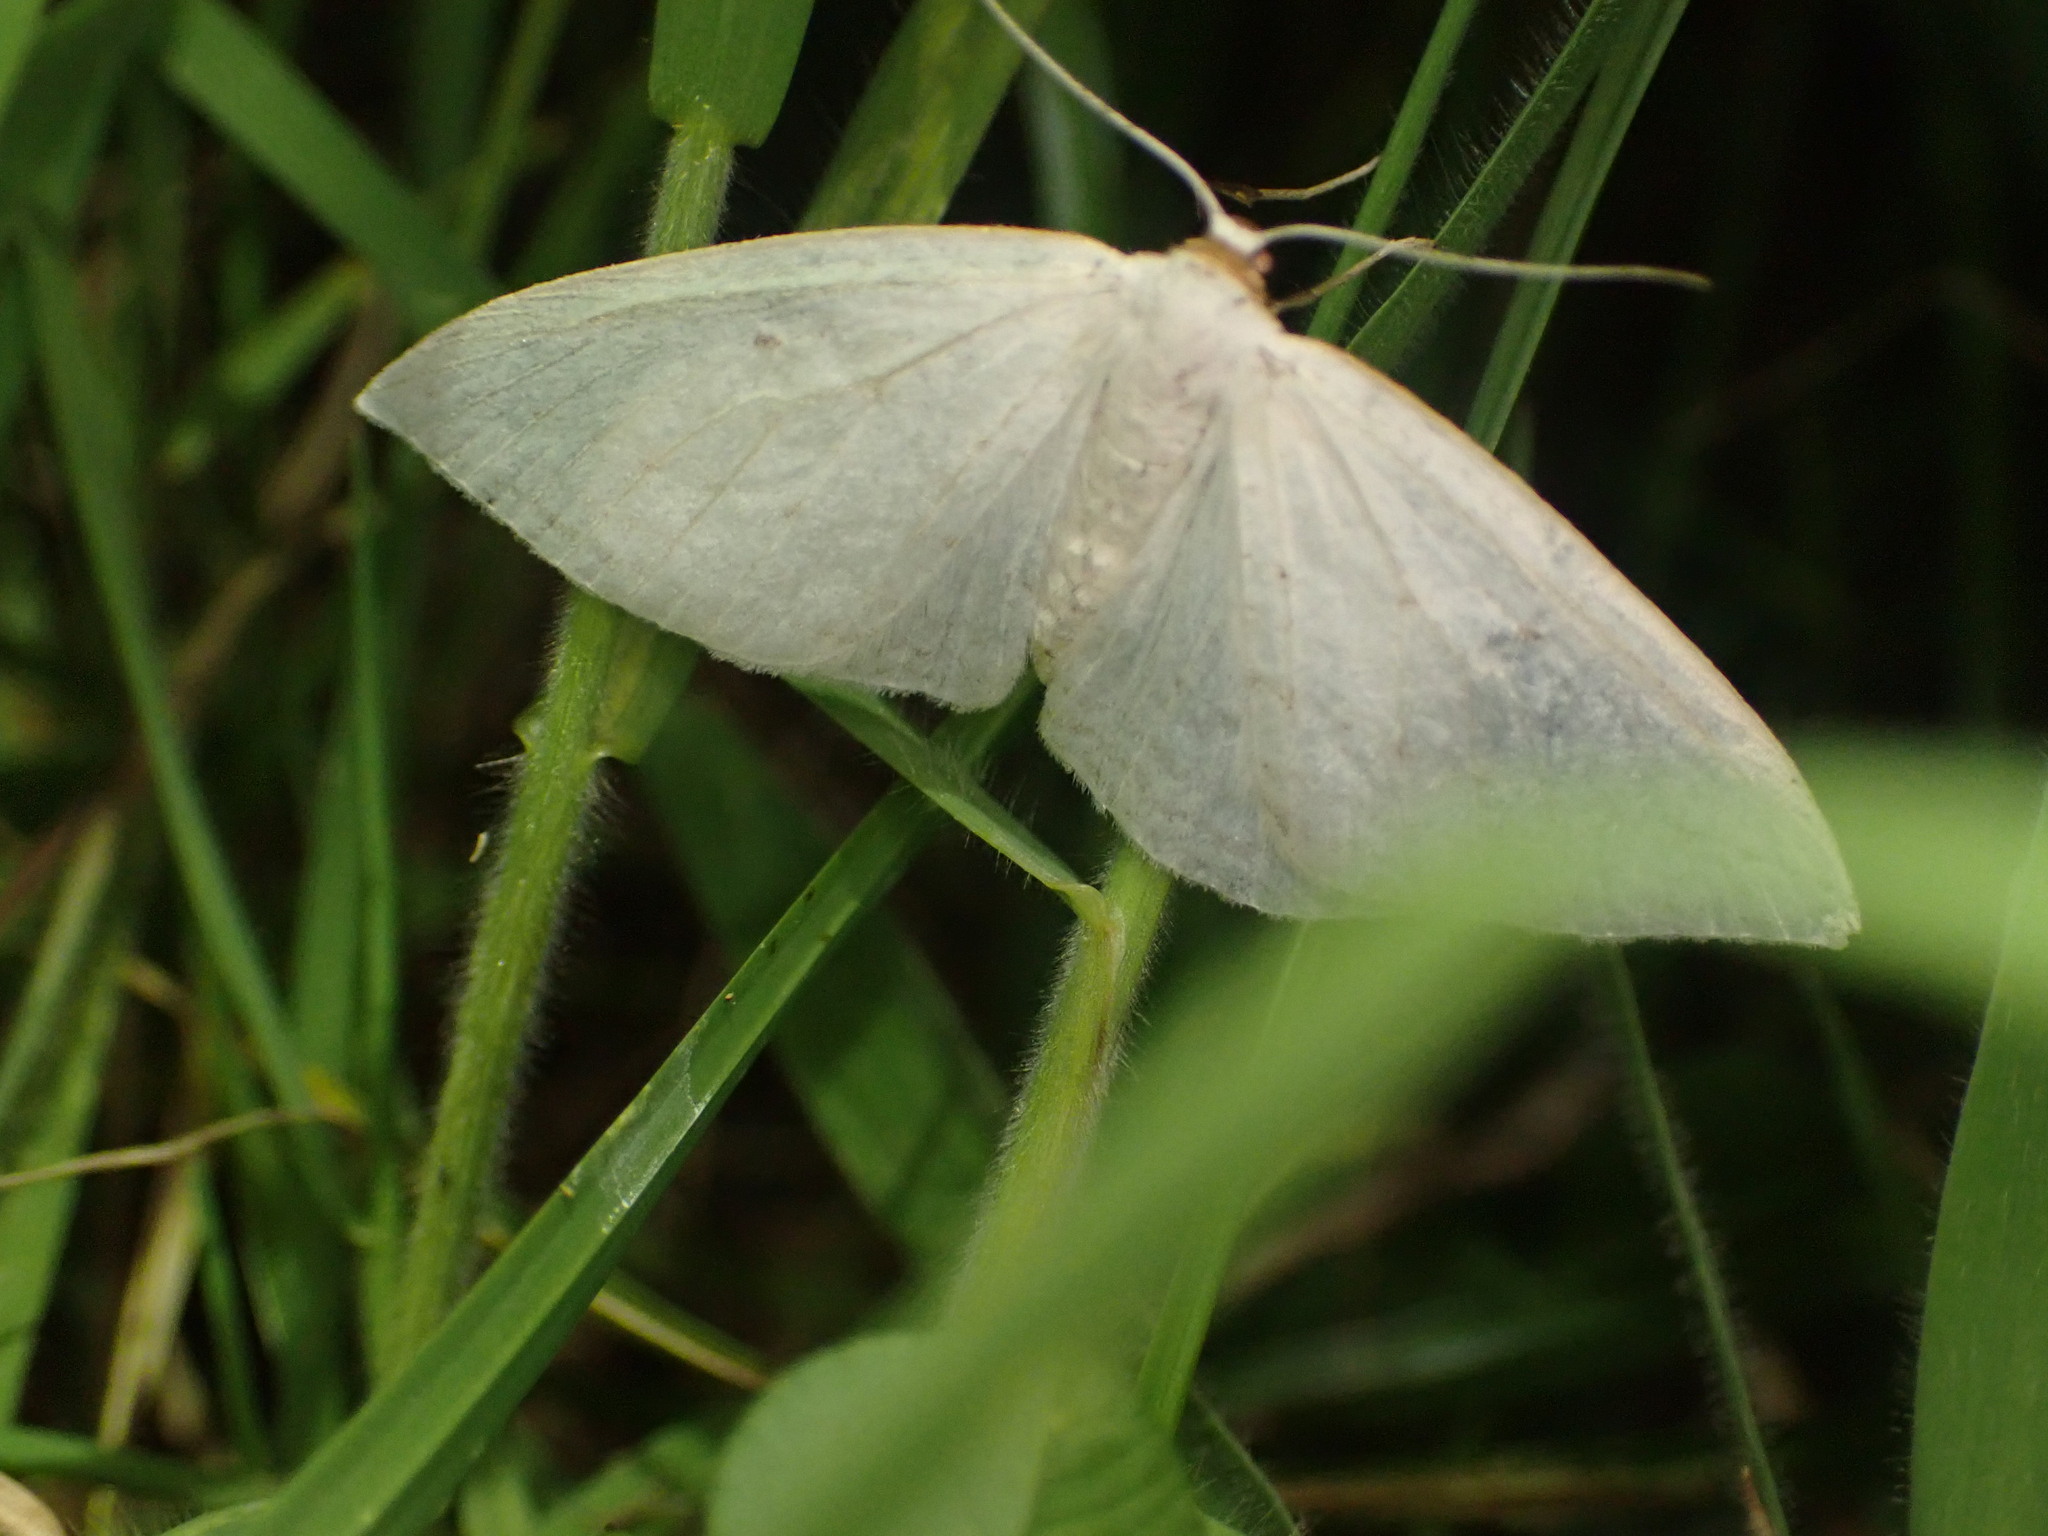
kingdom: Animalia
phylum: Arthropoda
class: Insecta
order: Lepidoptera
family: Geometridae
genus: Orthoclydon
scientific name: Orthoclydon praefectata
